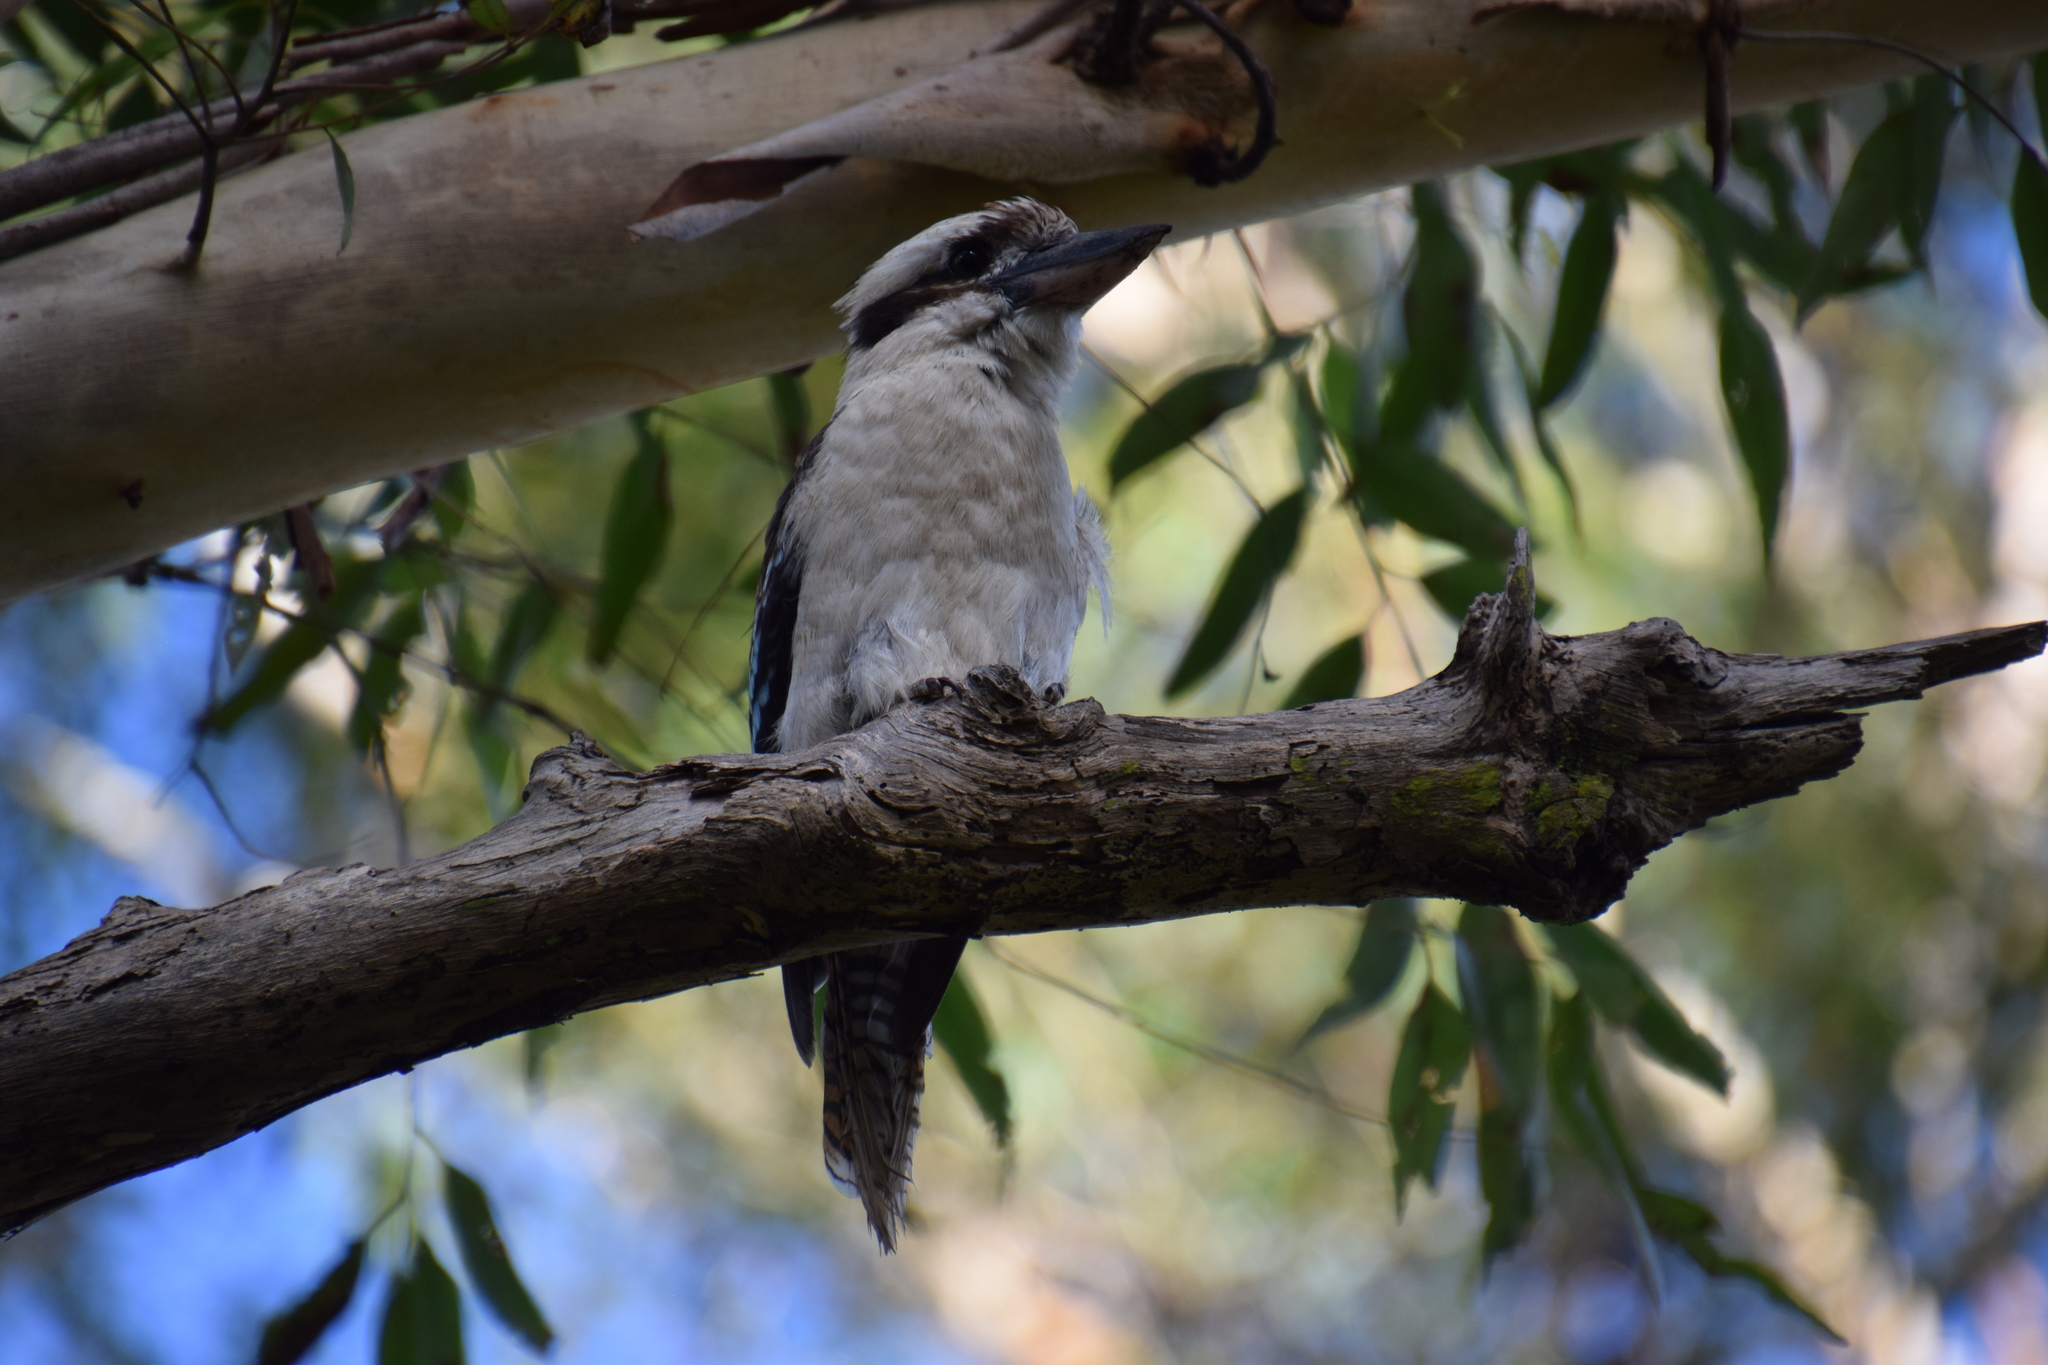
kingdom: Animalia
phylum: Chordata
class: Aves
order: Coraciiformes
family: Alcedinidae
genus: Dacelo
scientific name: Dacelo novaeguineae
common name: Laughing kookaburra
